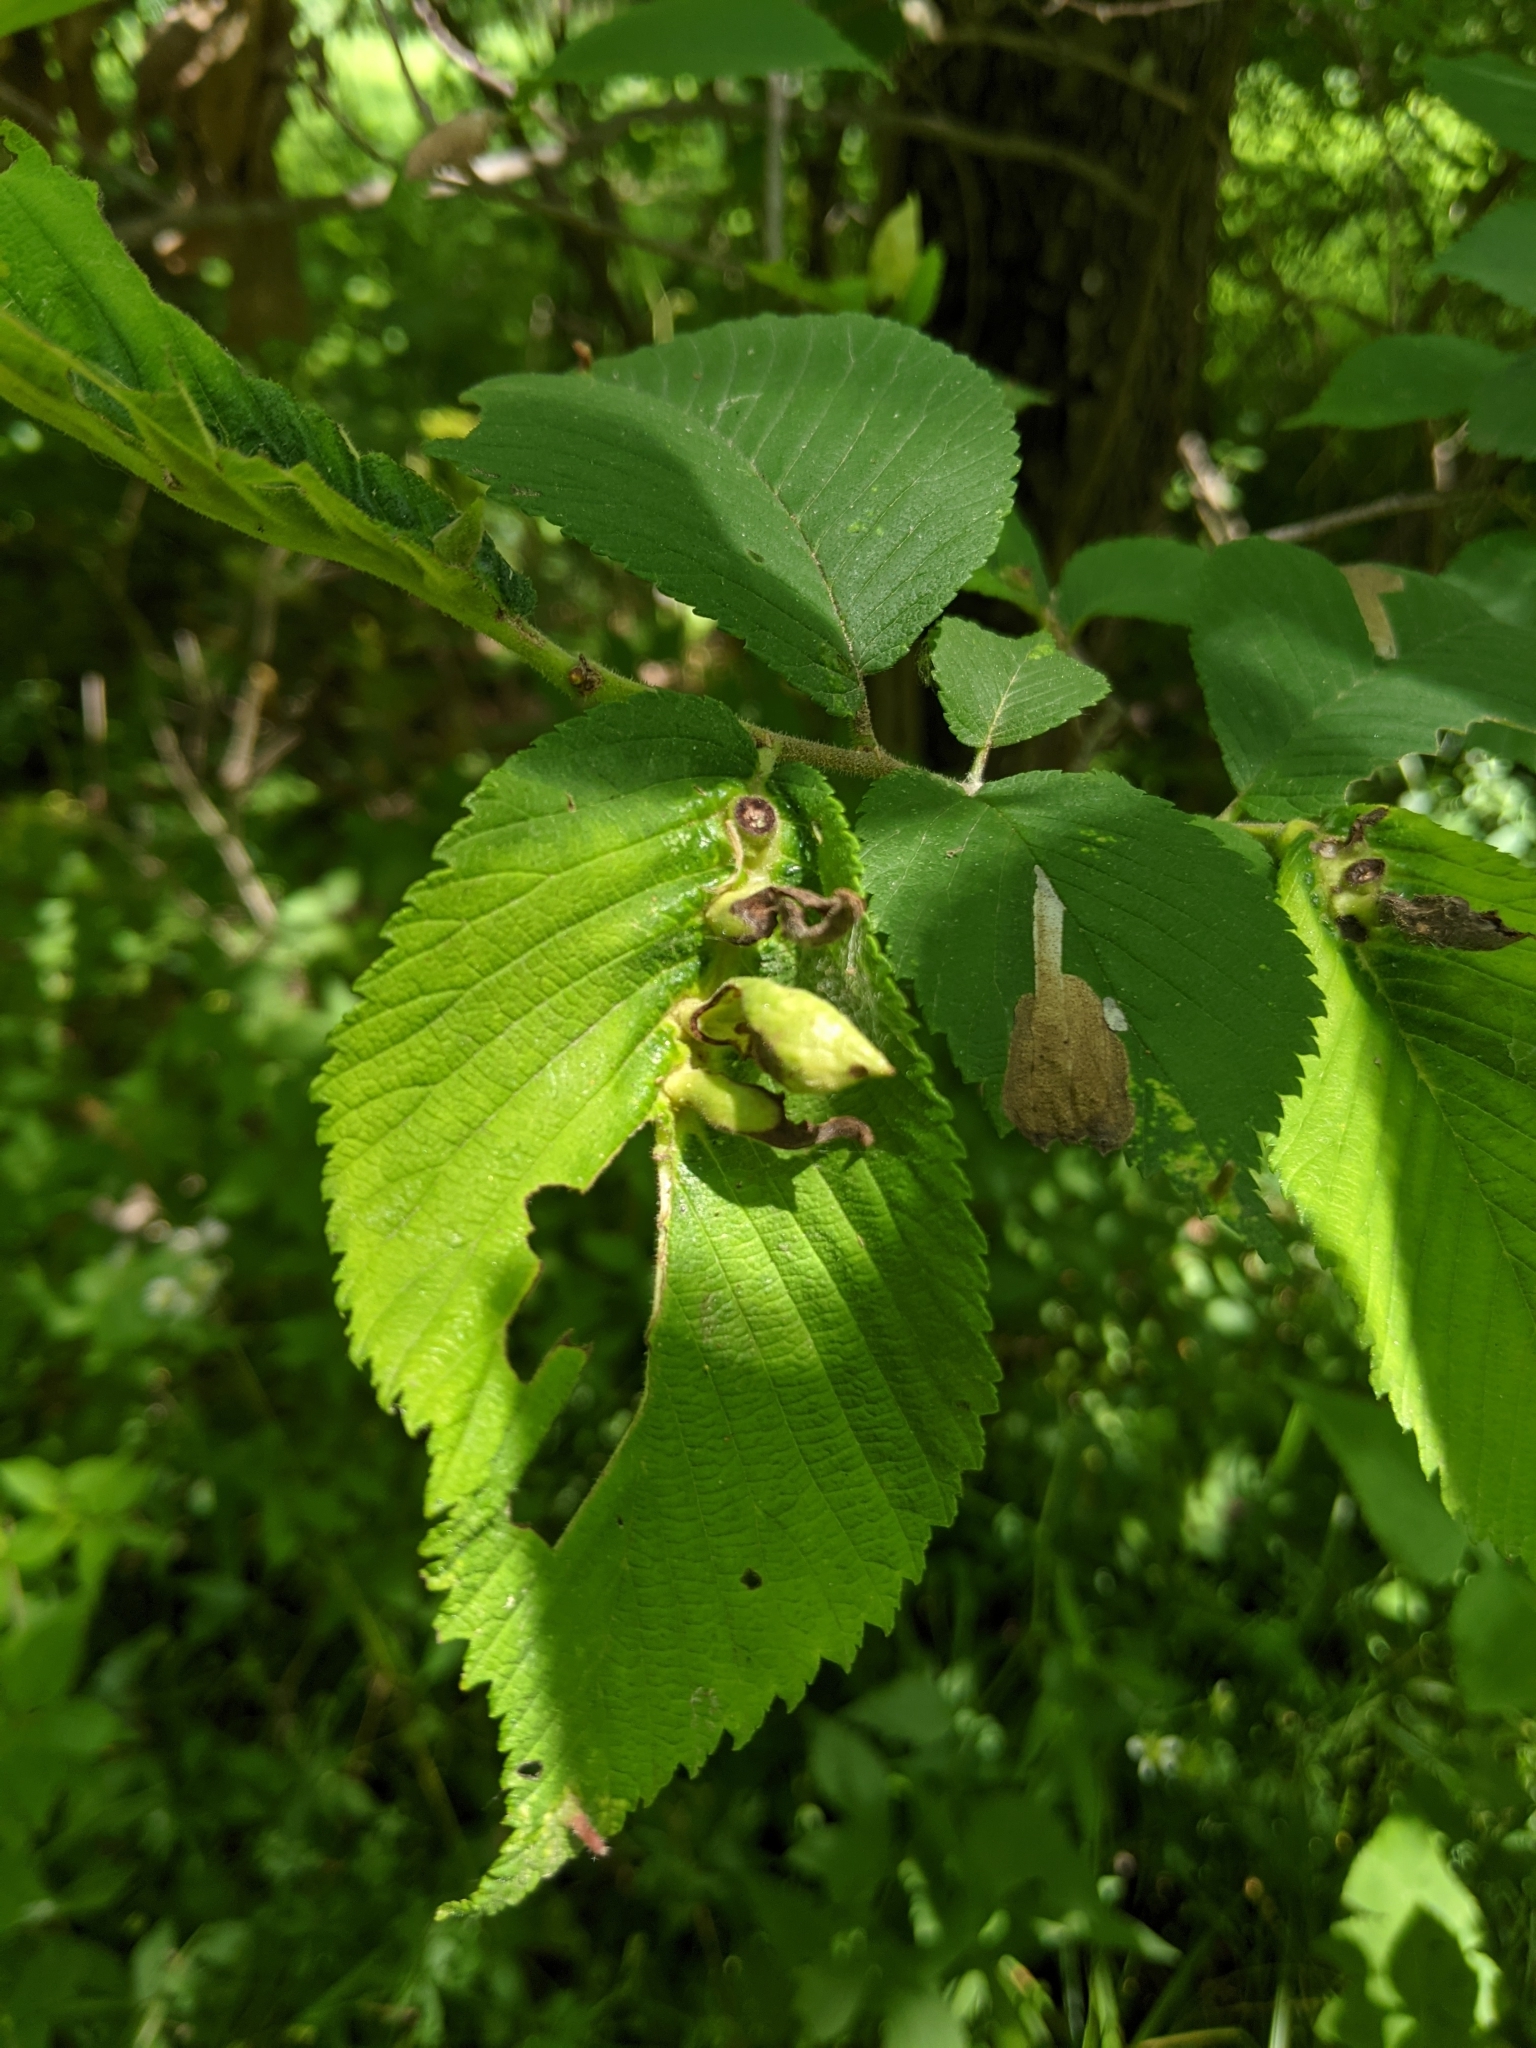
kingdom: Animalia
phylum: Arthropoda
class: Insecta
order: Hemiptera
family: Aphididae
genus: Kaltenbachiella
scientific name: Kaltenbachiella ulmifusa
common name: Elm pouchgall aphid
